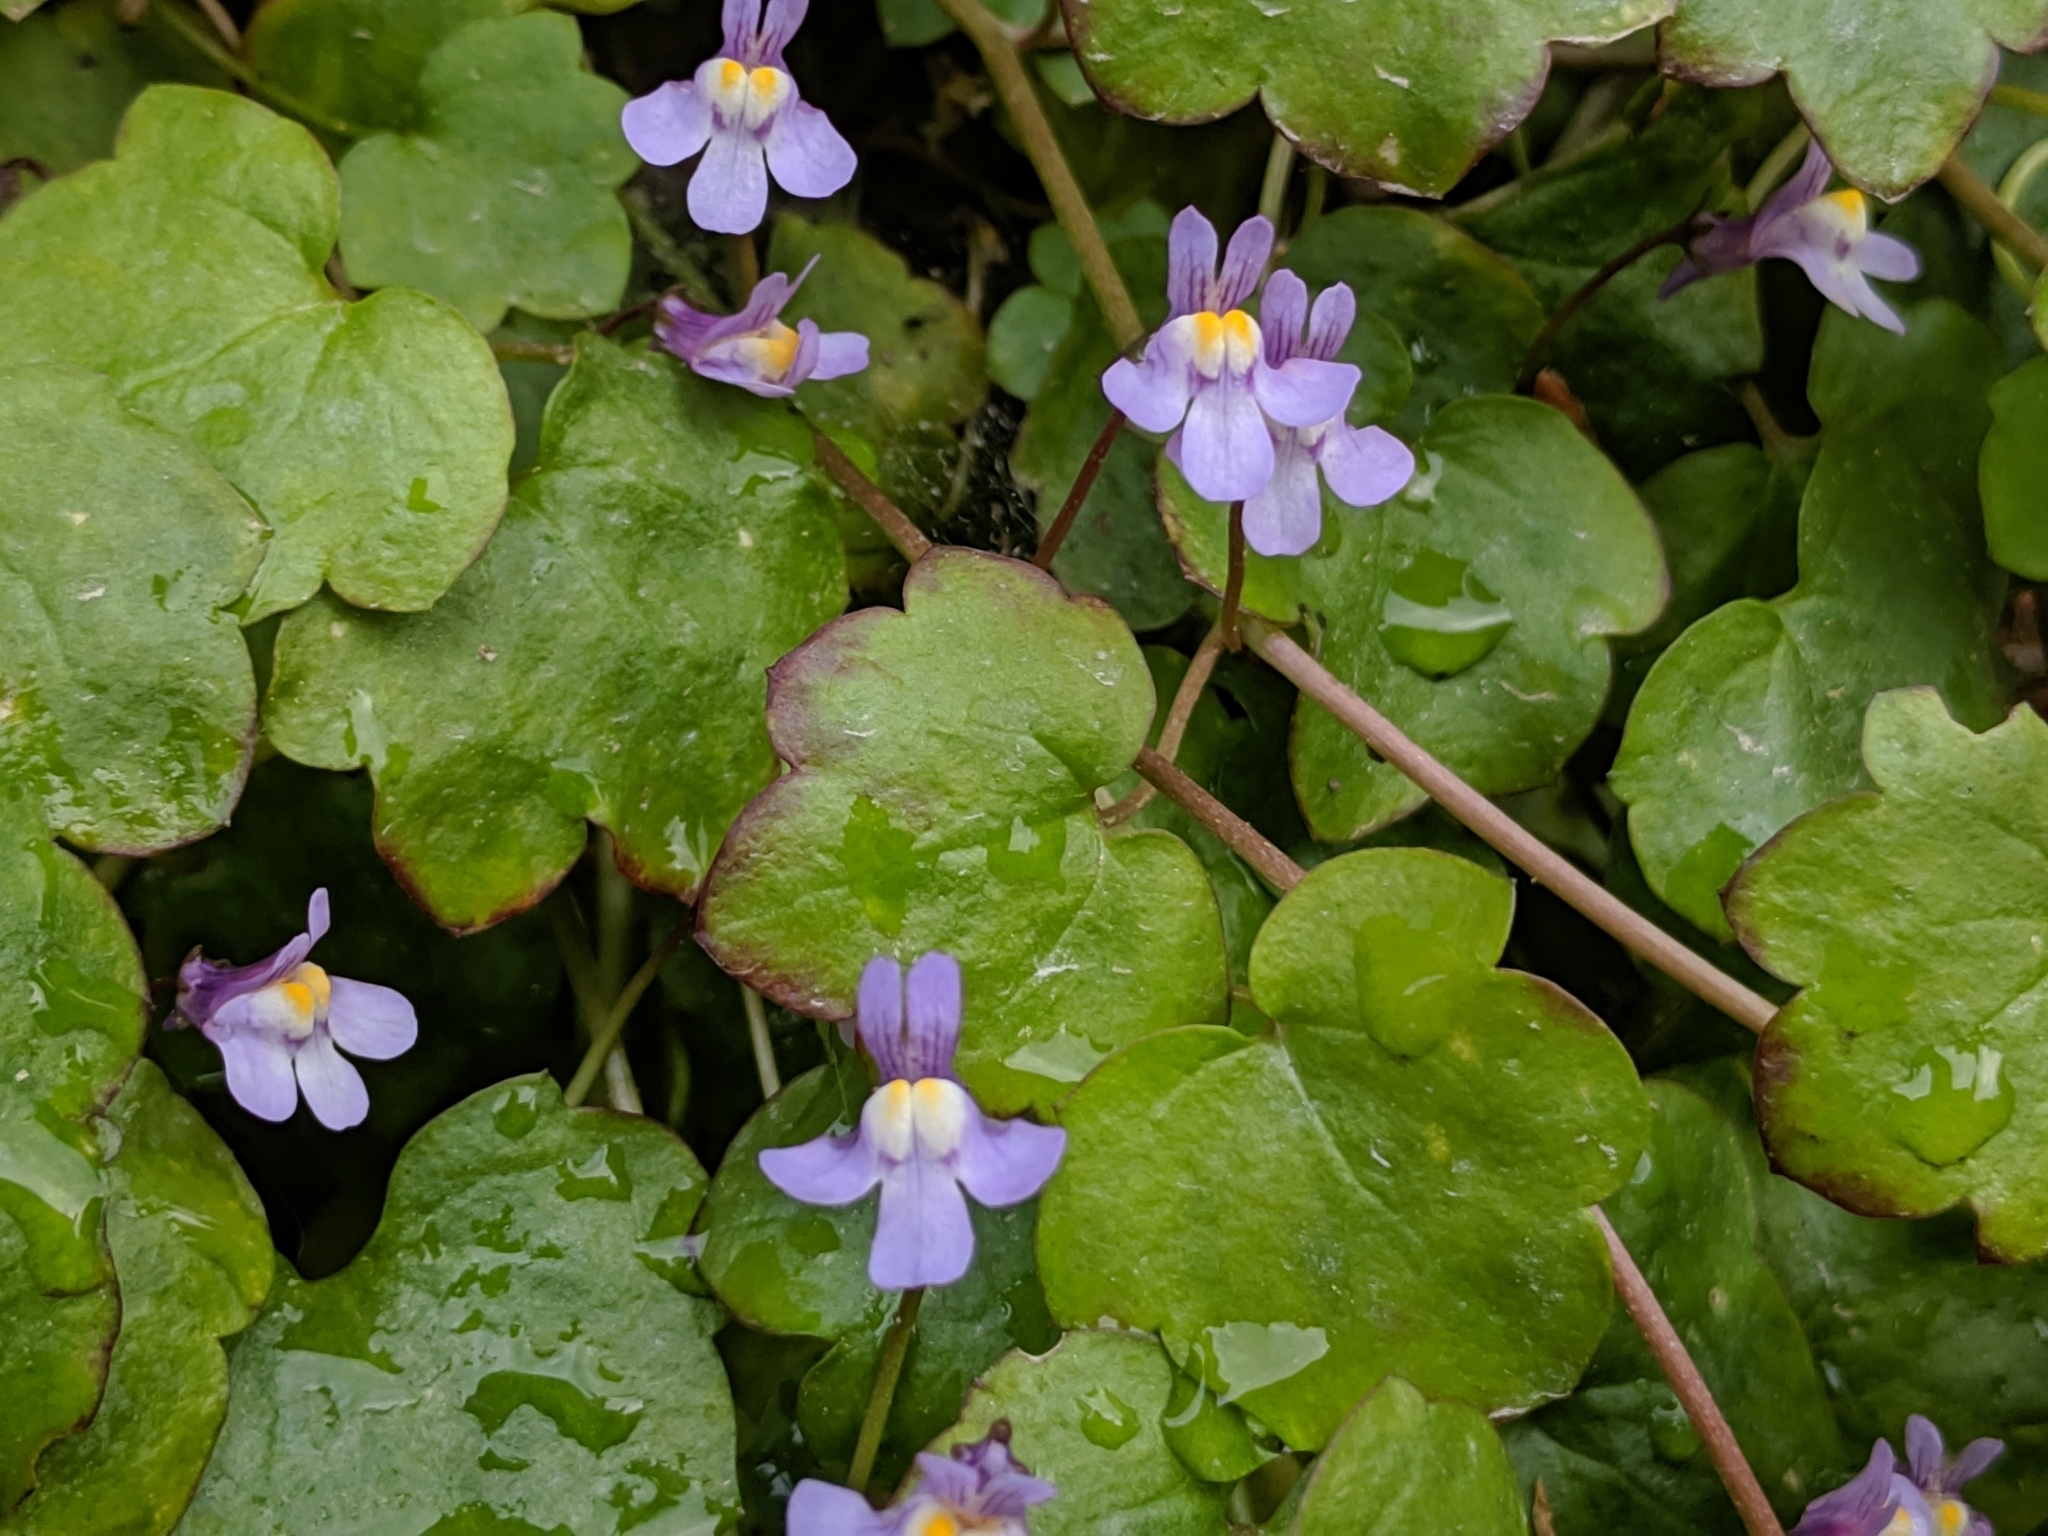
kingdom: Plantae
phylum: Tracheophyta
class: Magnoliopsida
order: Lamiales
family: Plantaginaceae
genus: Cymbalaria
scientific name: Cymbalaria muralis
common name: Ivy-leaved toadflax
